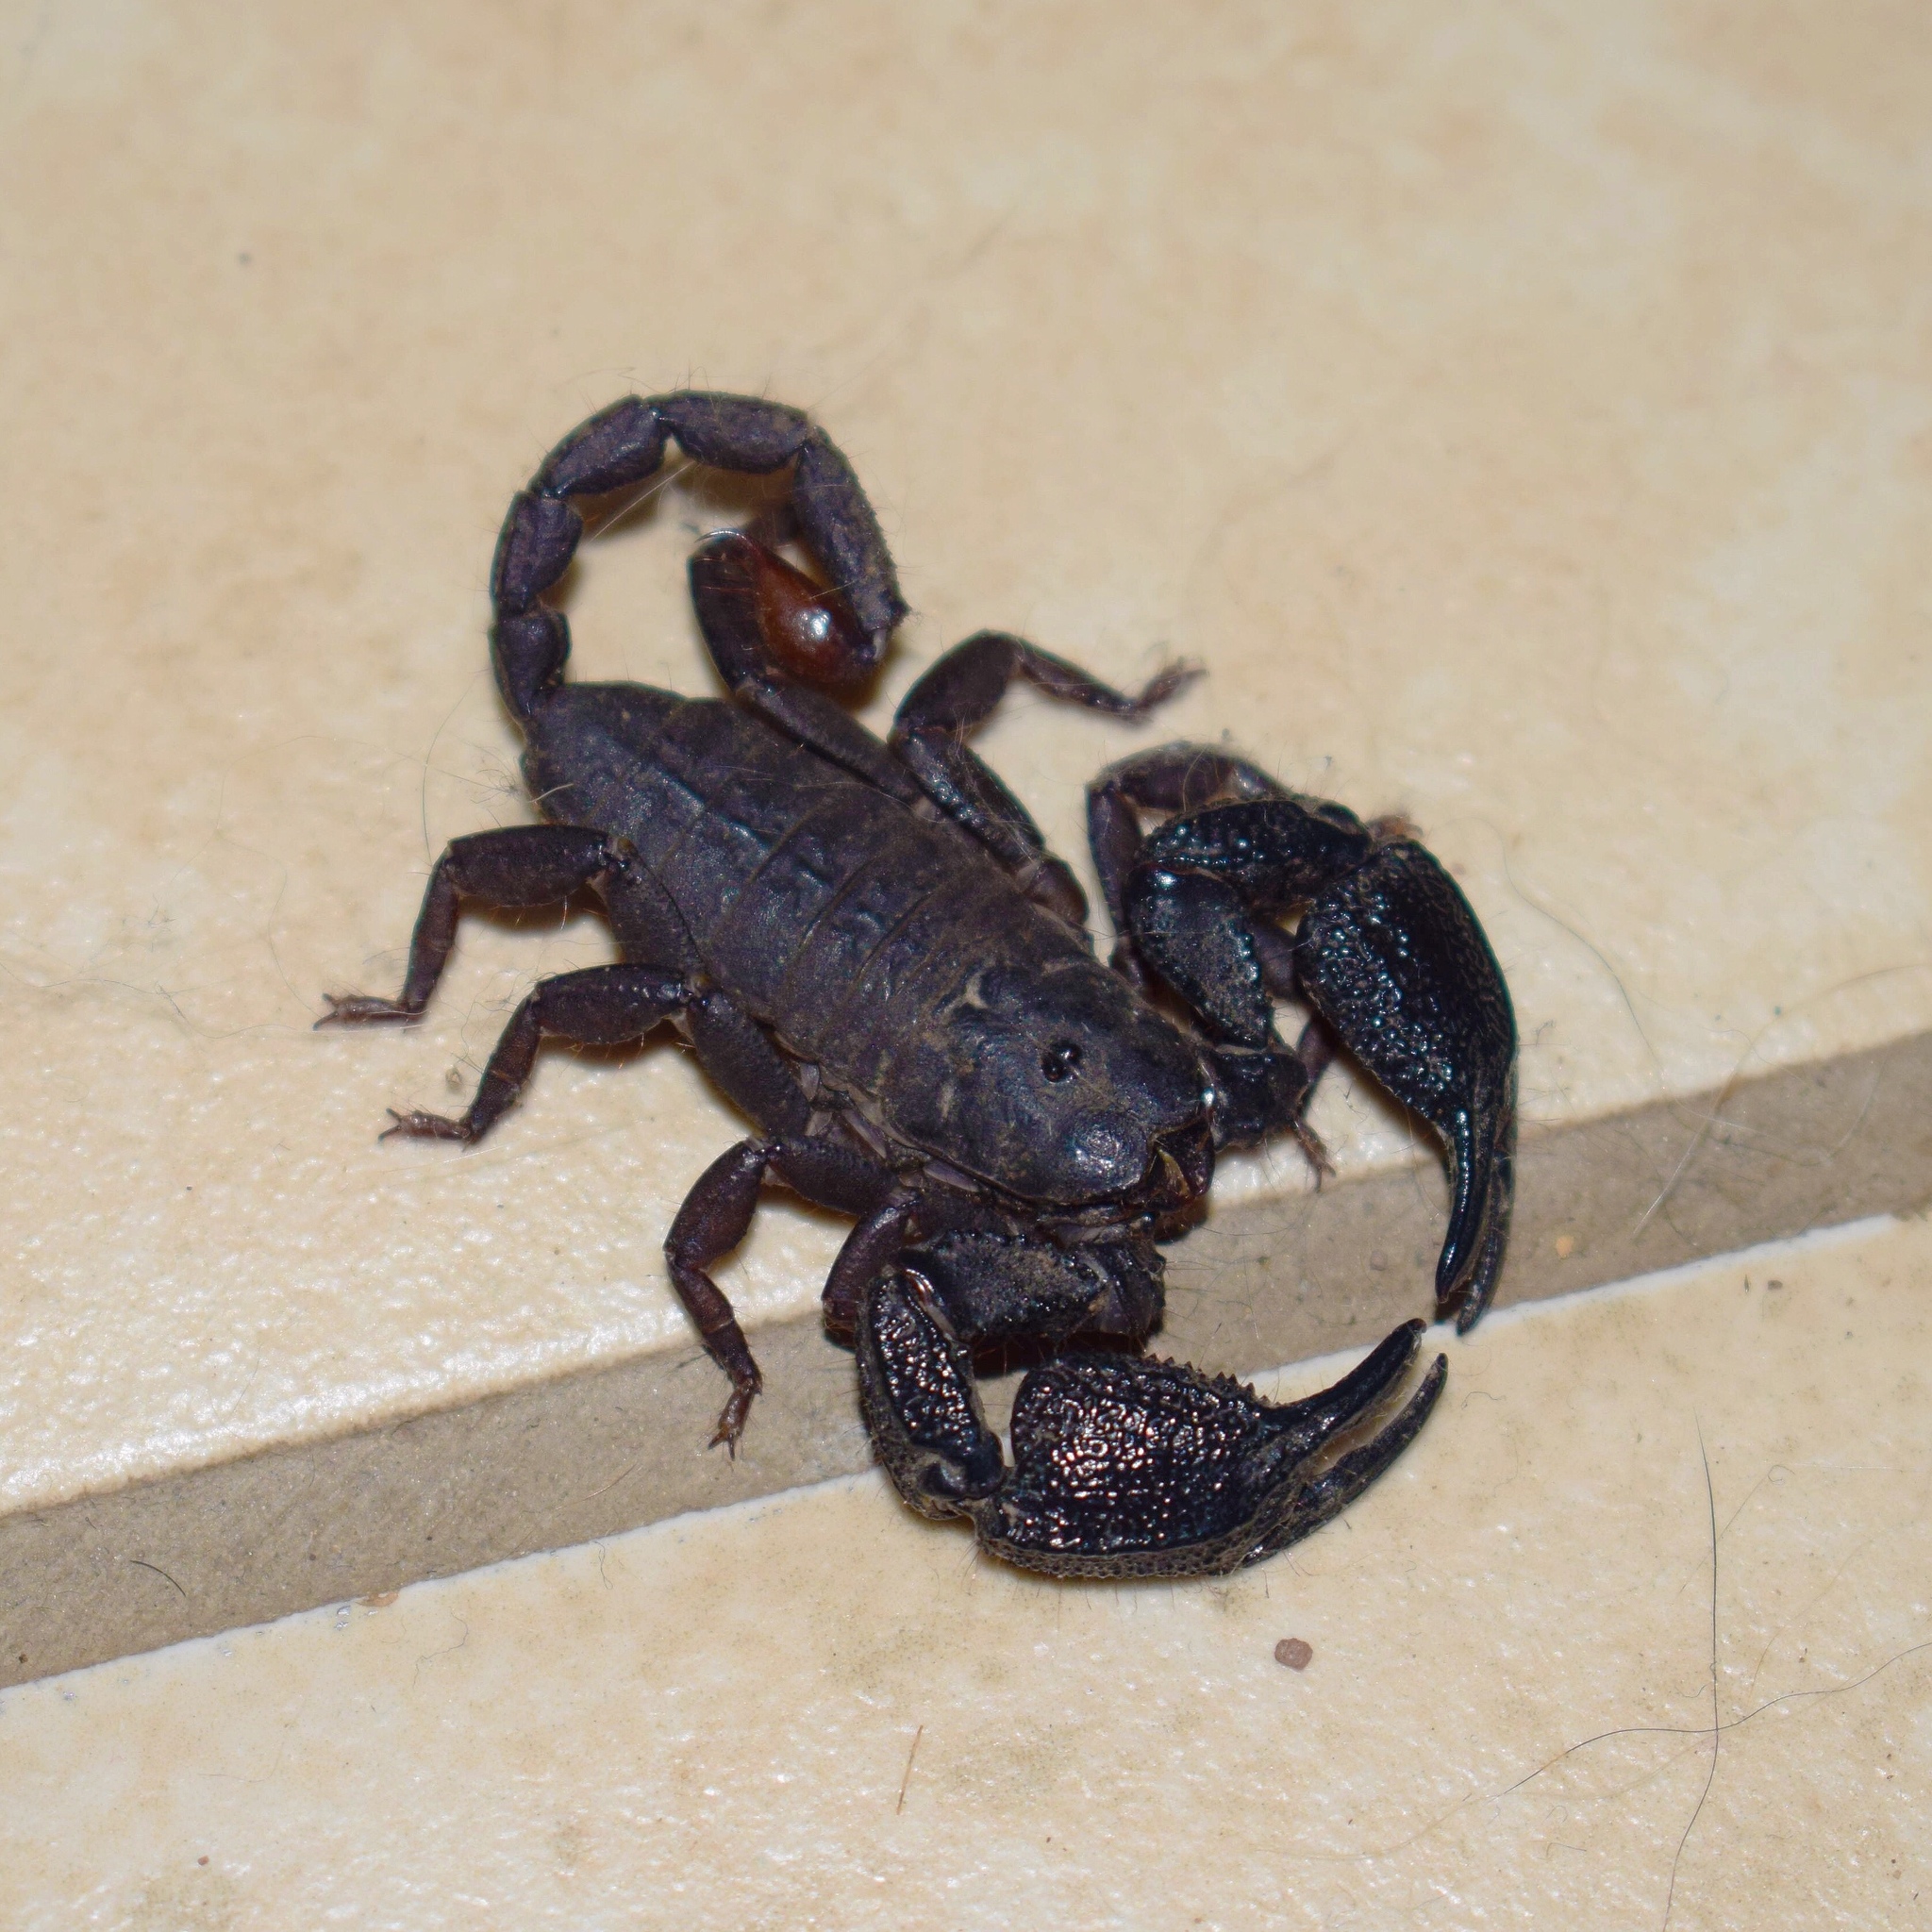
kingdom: Animalia
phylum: Arthropoda
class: Arachnida
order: Scorpiones
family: Hormuridae
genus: Opisthacanthus
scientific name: Opisthacanthus validus
